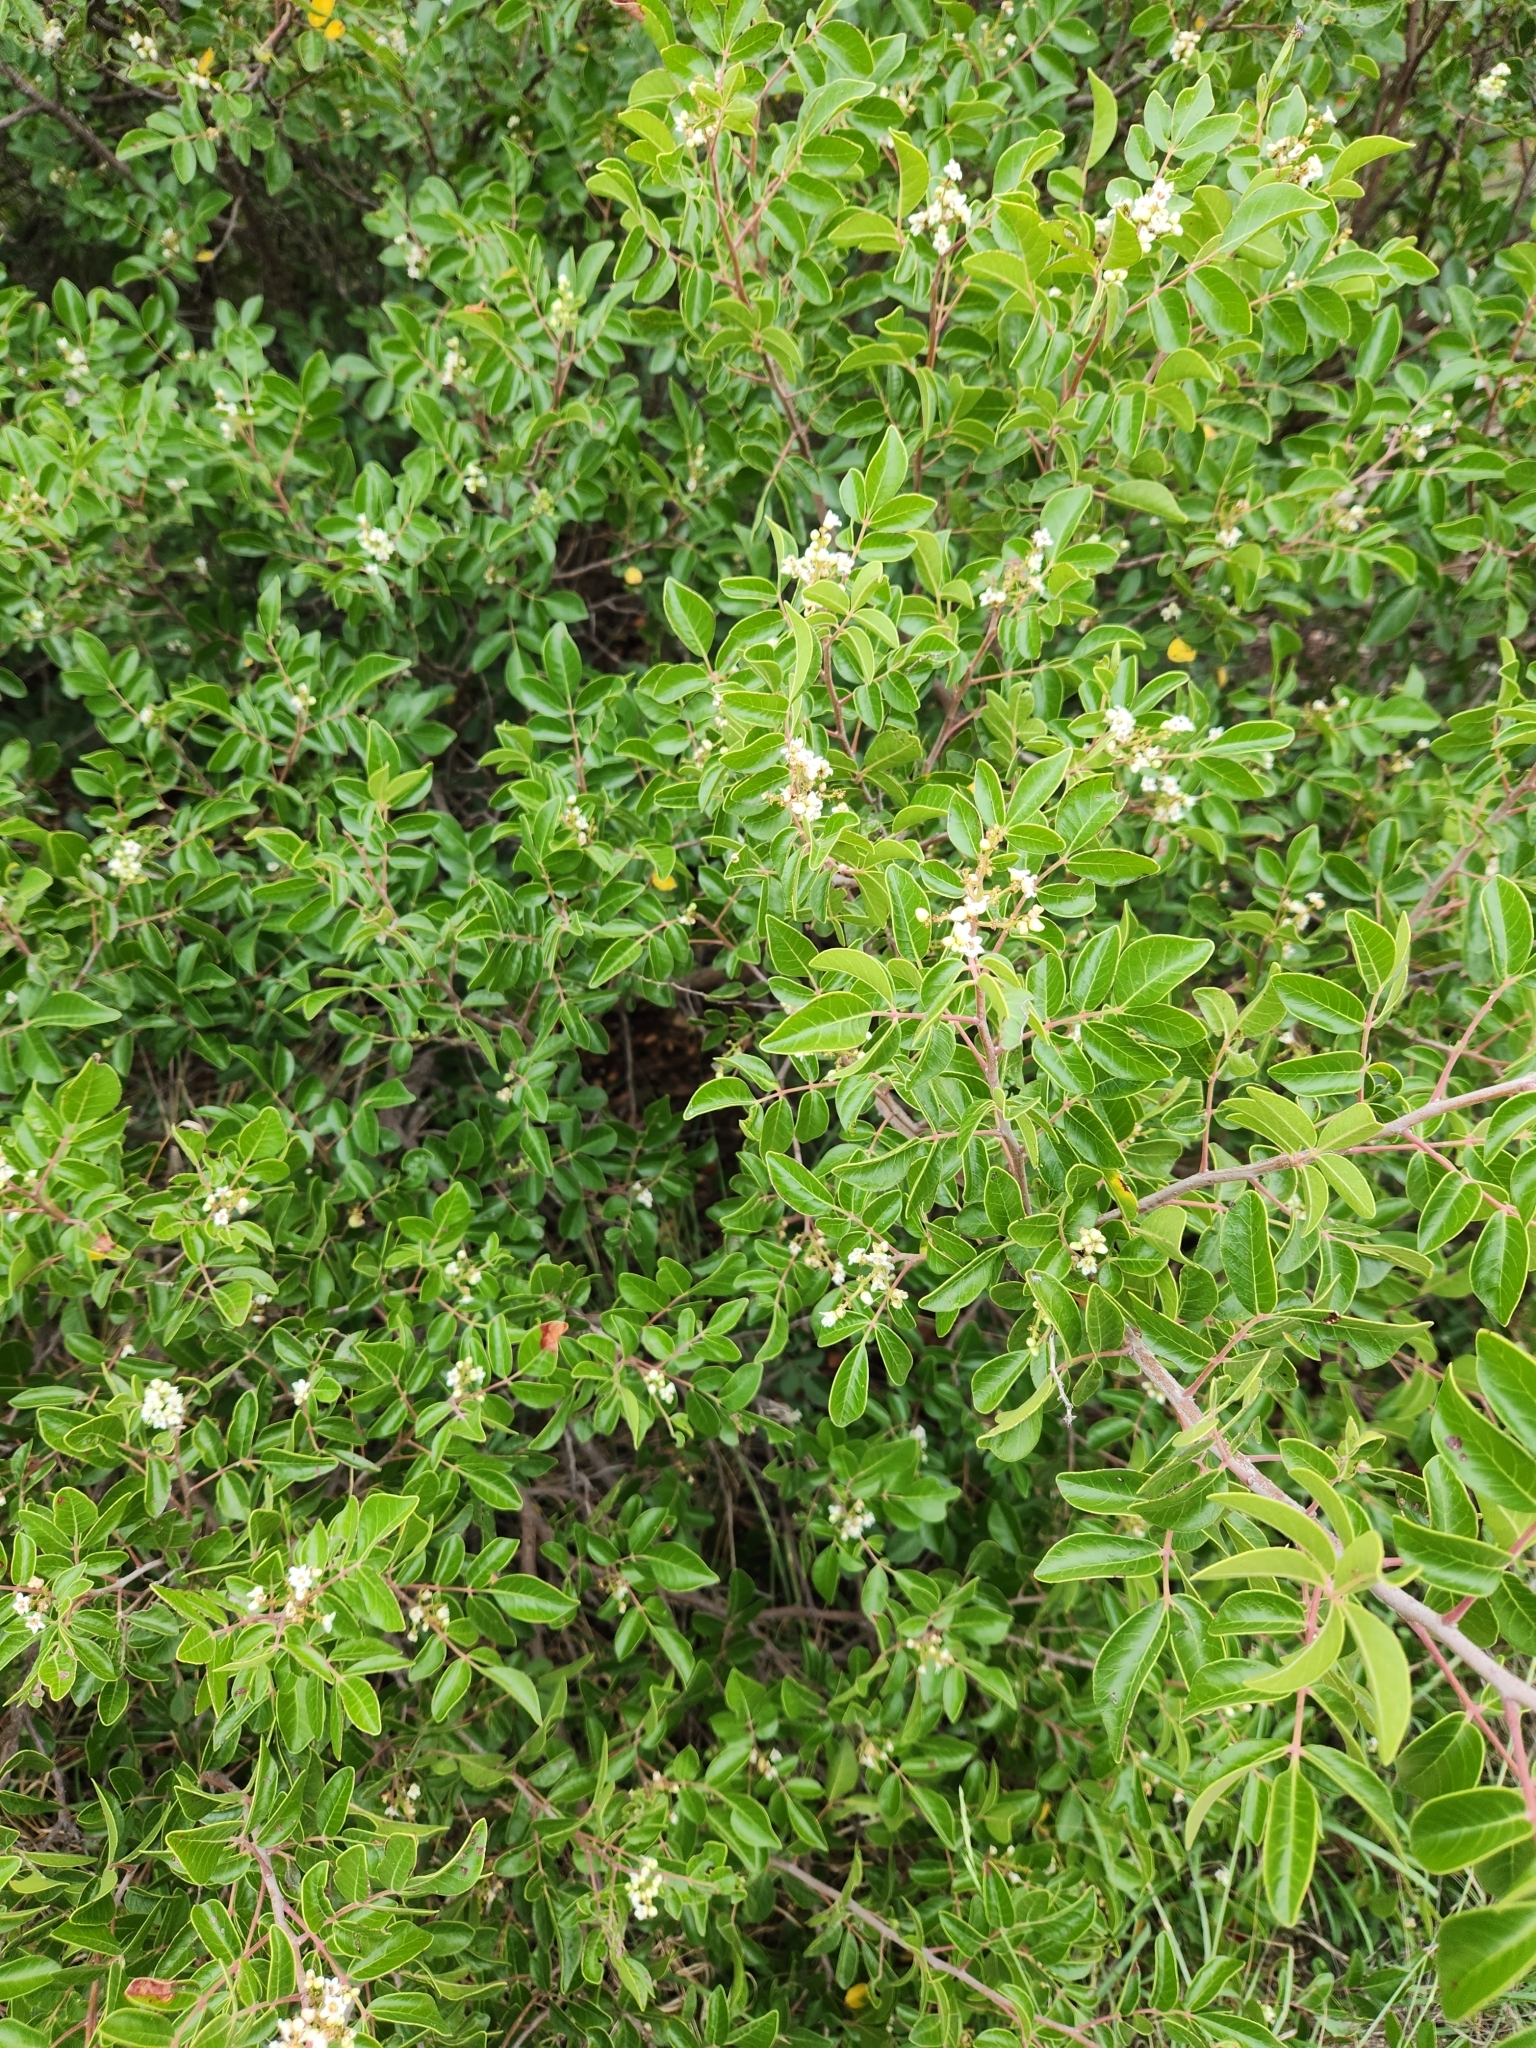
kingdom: Plantae
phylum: Tracheophyta
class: Magnoliopsida
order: Sapindales
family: Anacardiaceae
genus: Rhus
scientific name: Rhus virens
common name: Evergreen sumac
